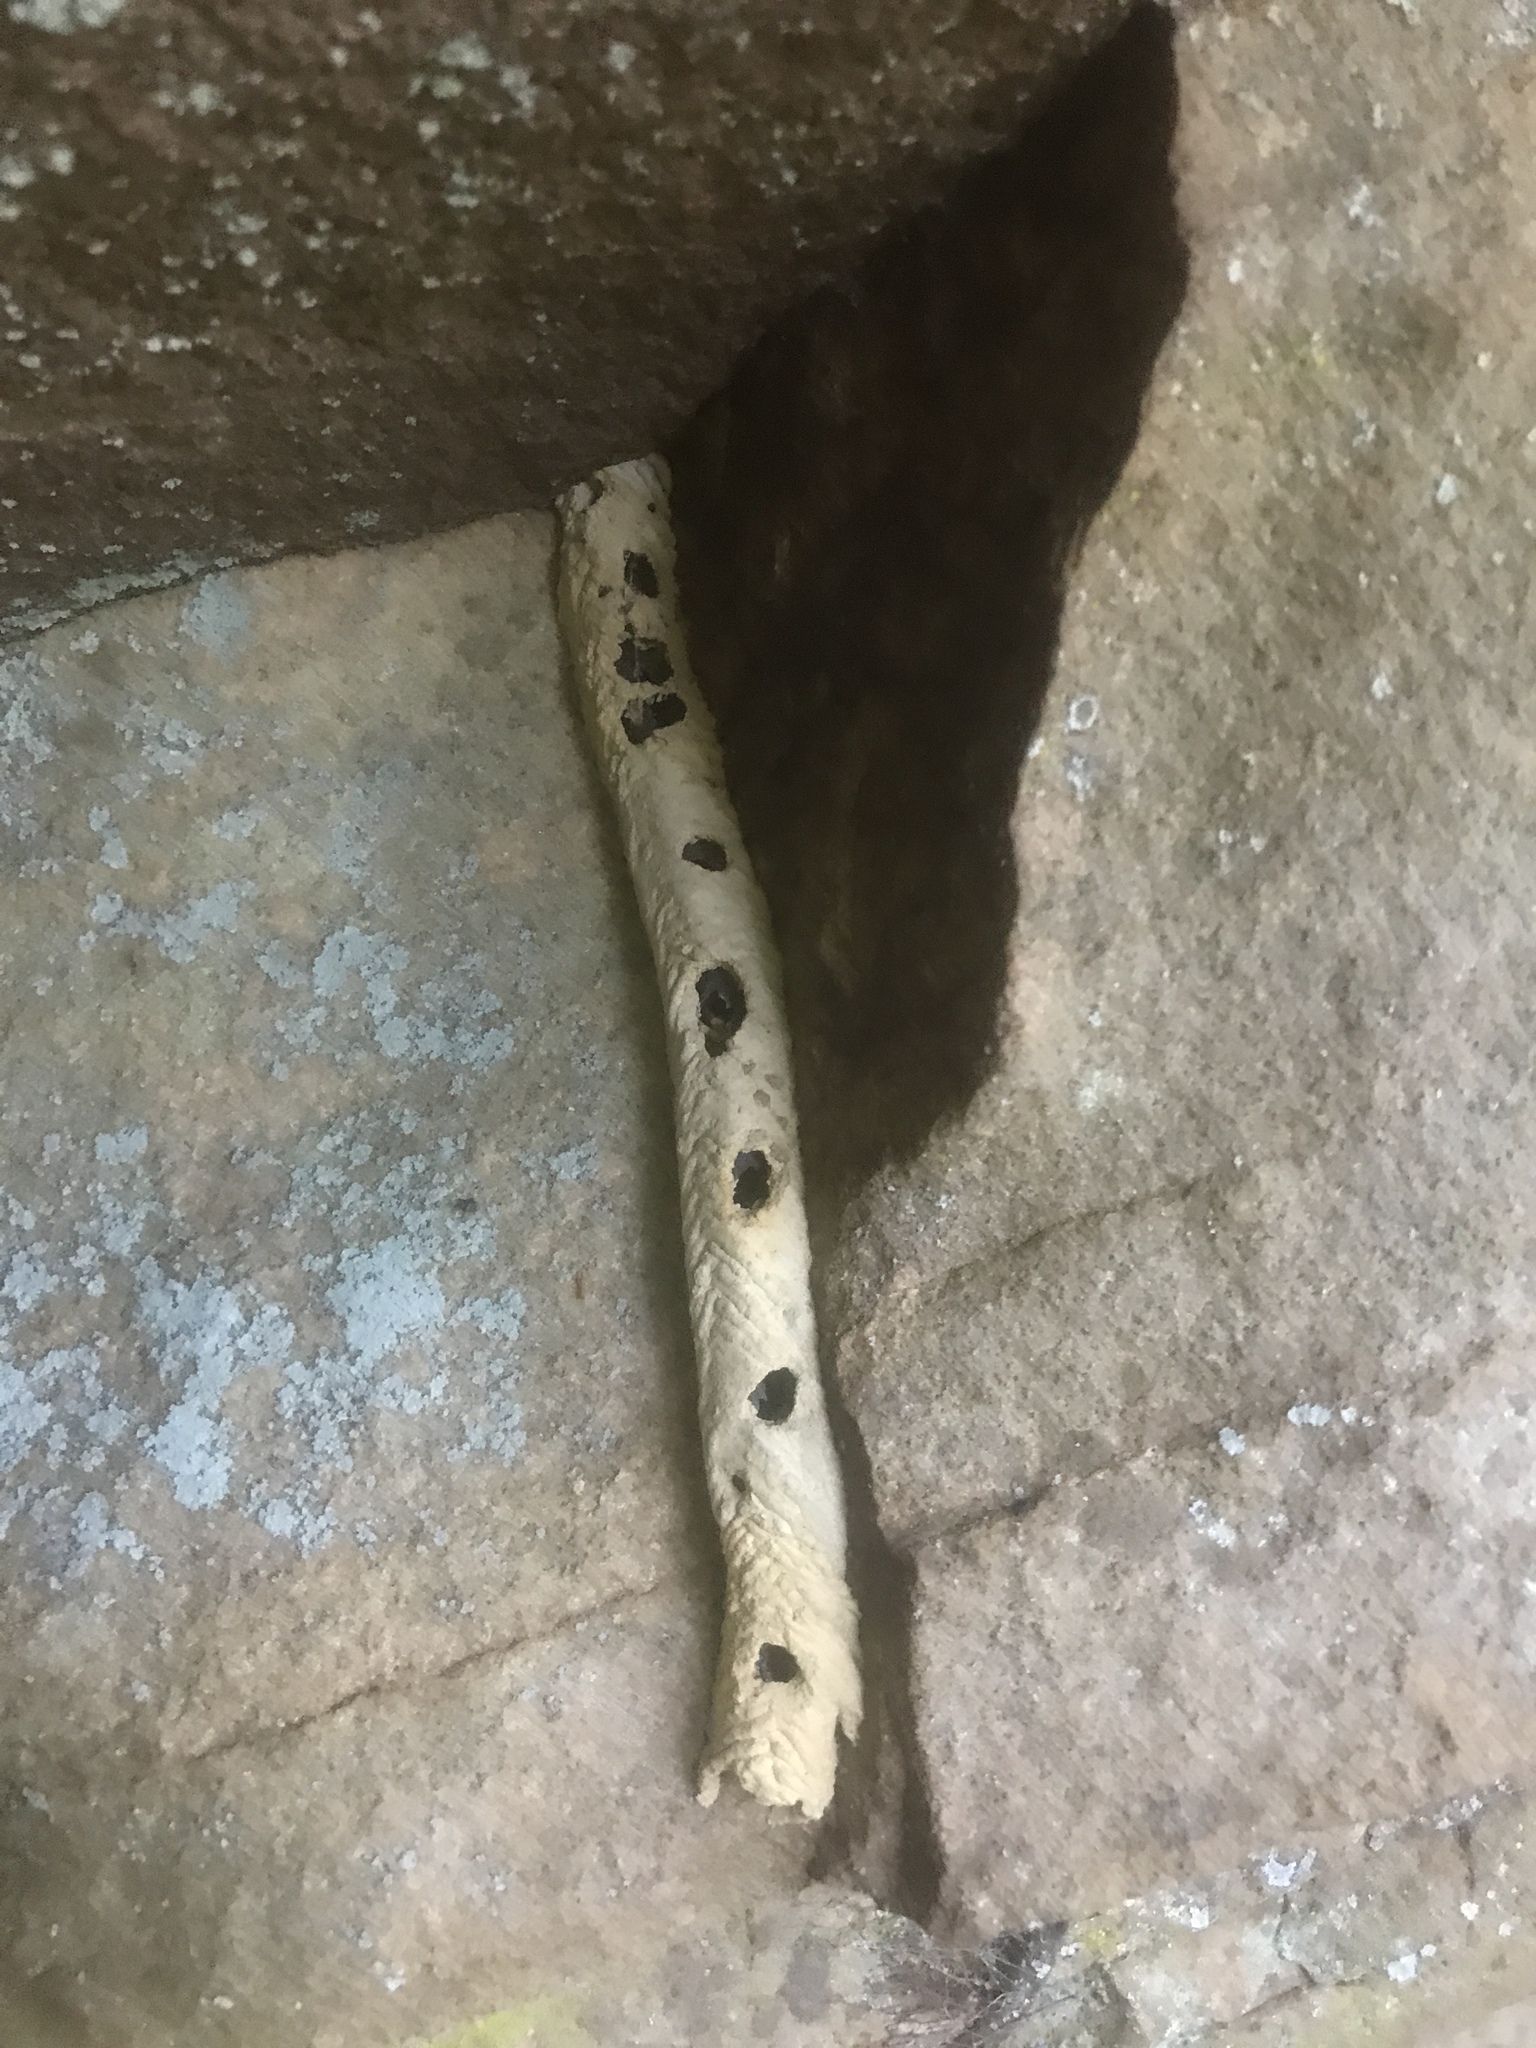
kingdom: Animalia
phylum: Arthropoda
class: Insecta
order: Hymenoptera
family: Crabronidae
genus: Trypoxylon
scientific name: Trypoxylon politum
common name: Organ-pipe mud-dauber wasp
